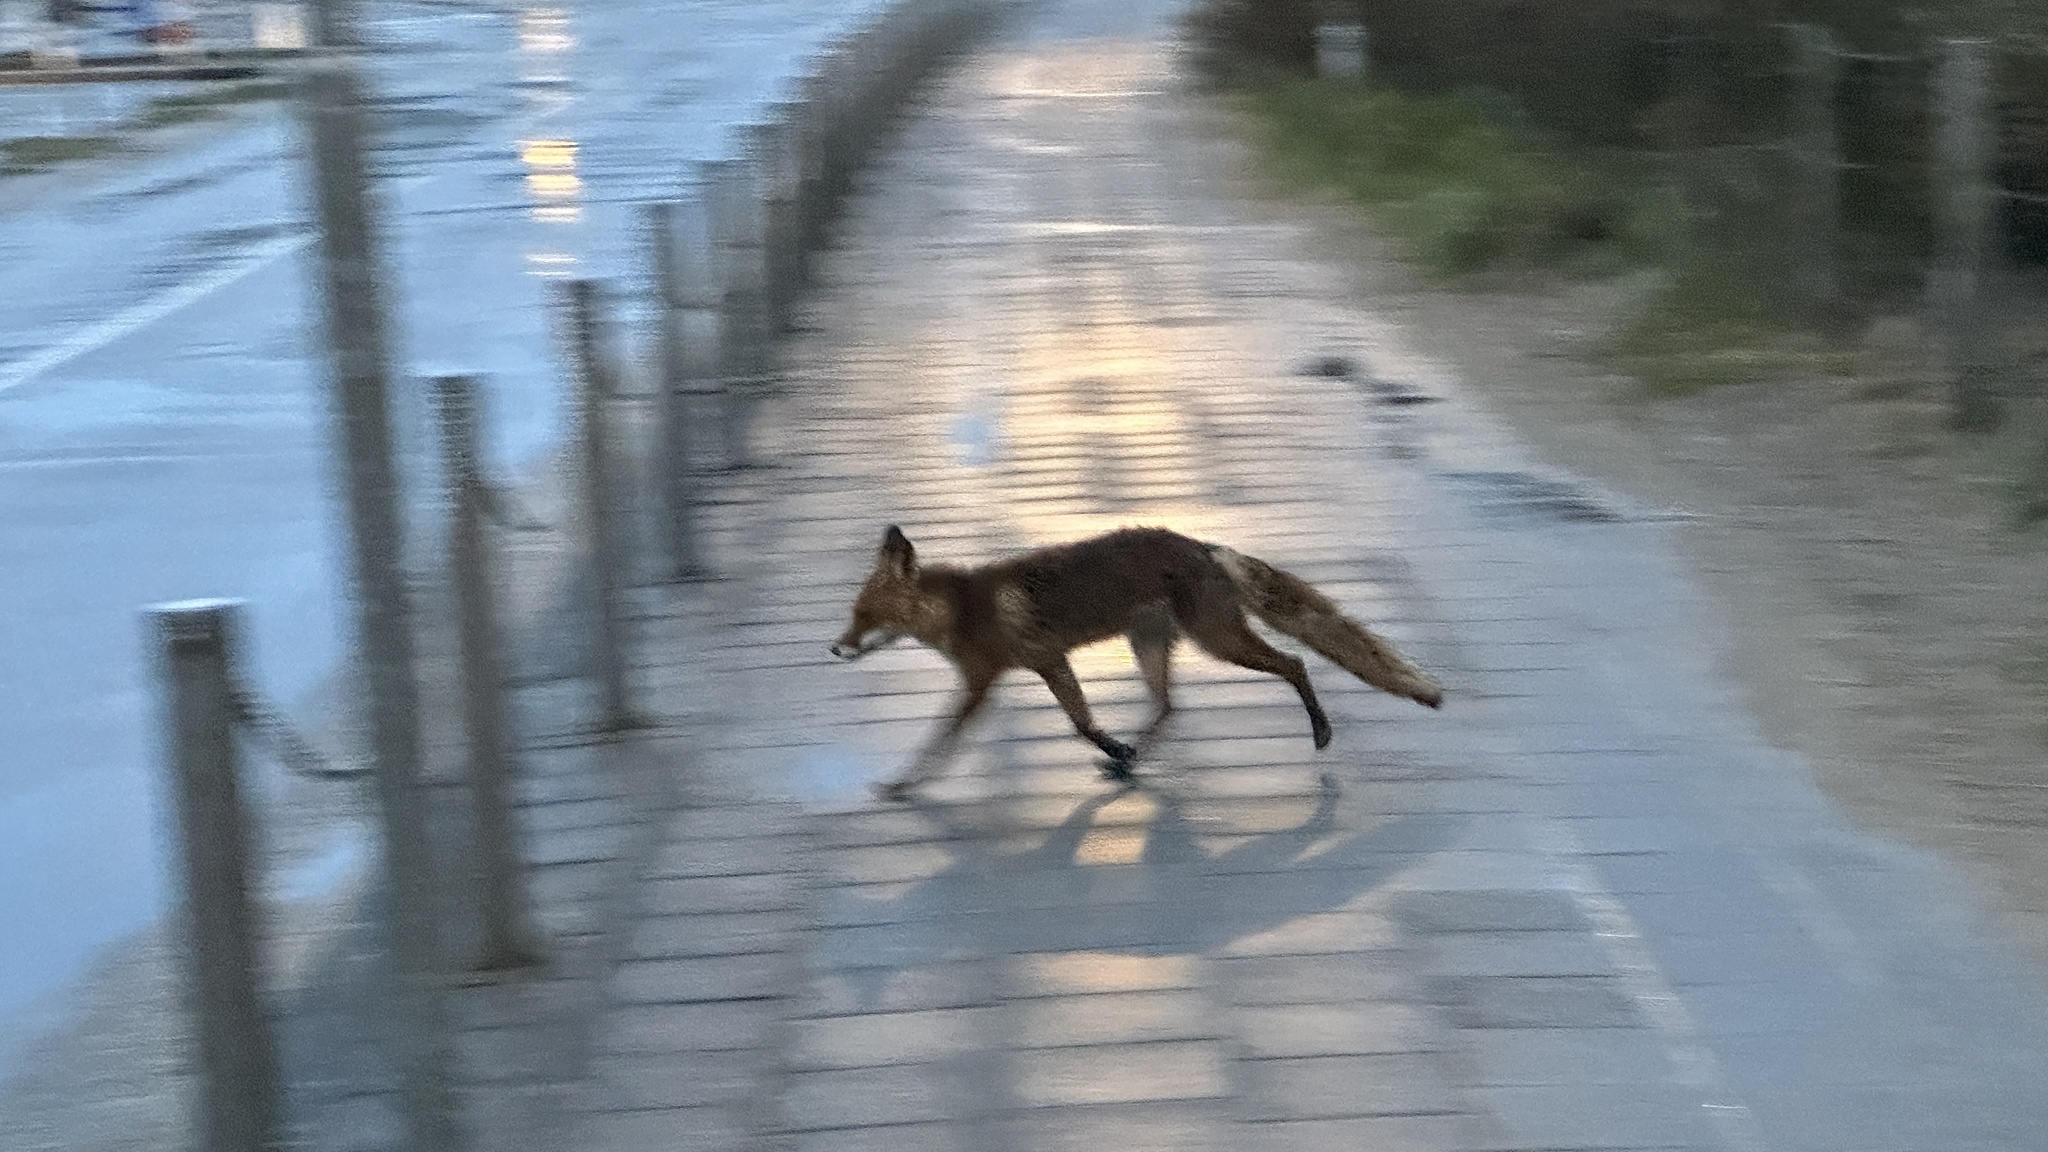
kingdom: Animalia
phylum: Chordata
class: Mammalia
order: Carnivora
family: Canidae
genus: Vulpes
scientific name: Vulpes vulpes
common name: Red fox
